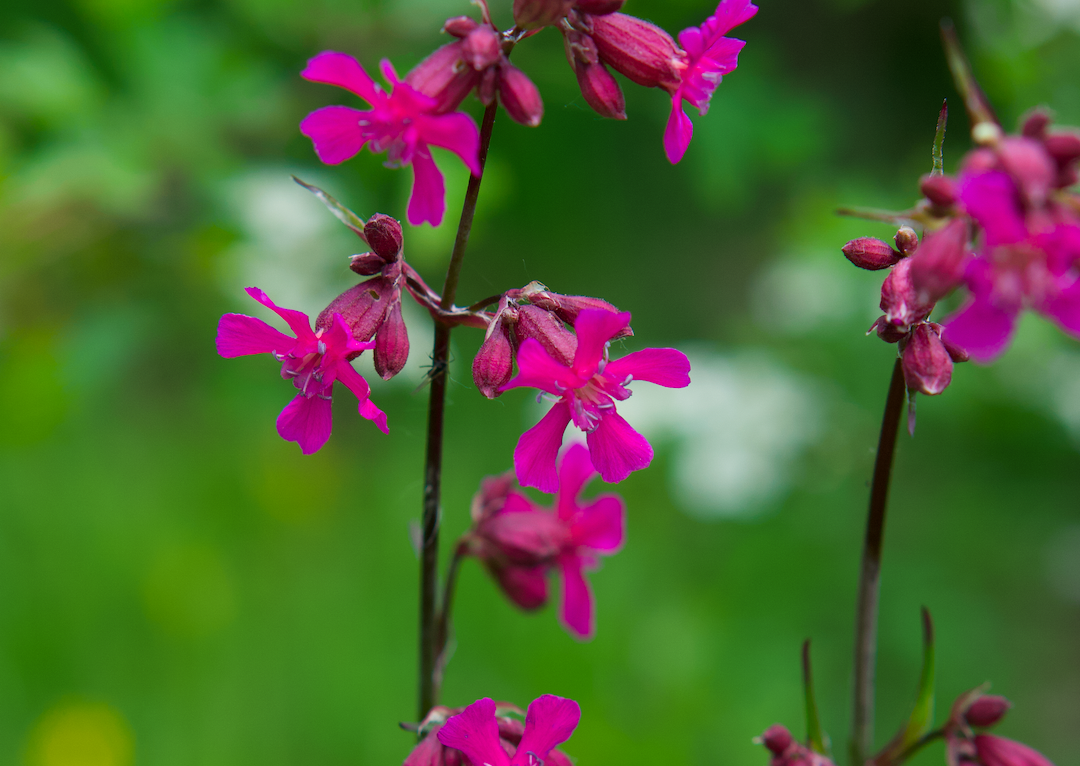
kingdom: Plantae
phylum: Tracheophyta
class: Magnoliopsida
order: Caryophyllales
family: Caryophyllaceae
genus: Viscaria
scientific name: Viscaria vulgaris
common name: Clammy campion
